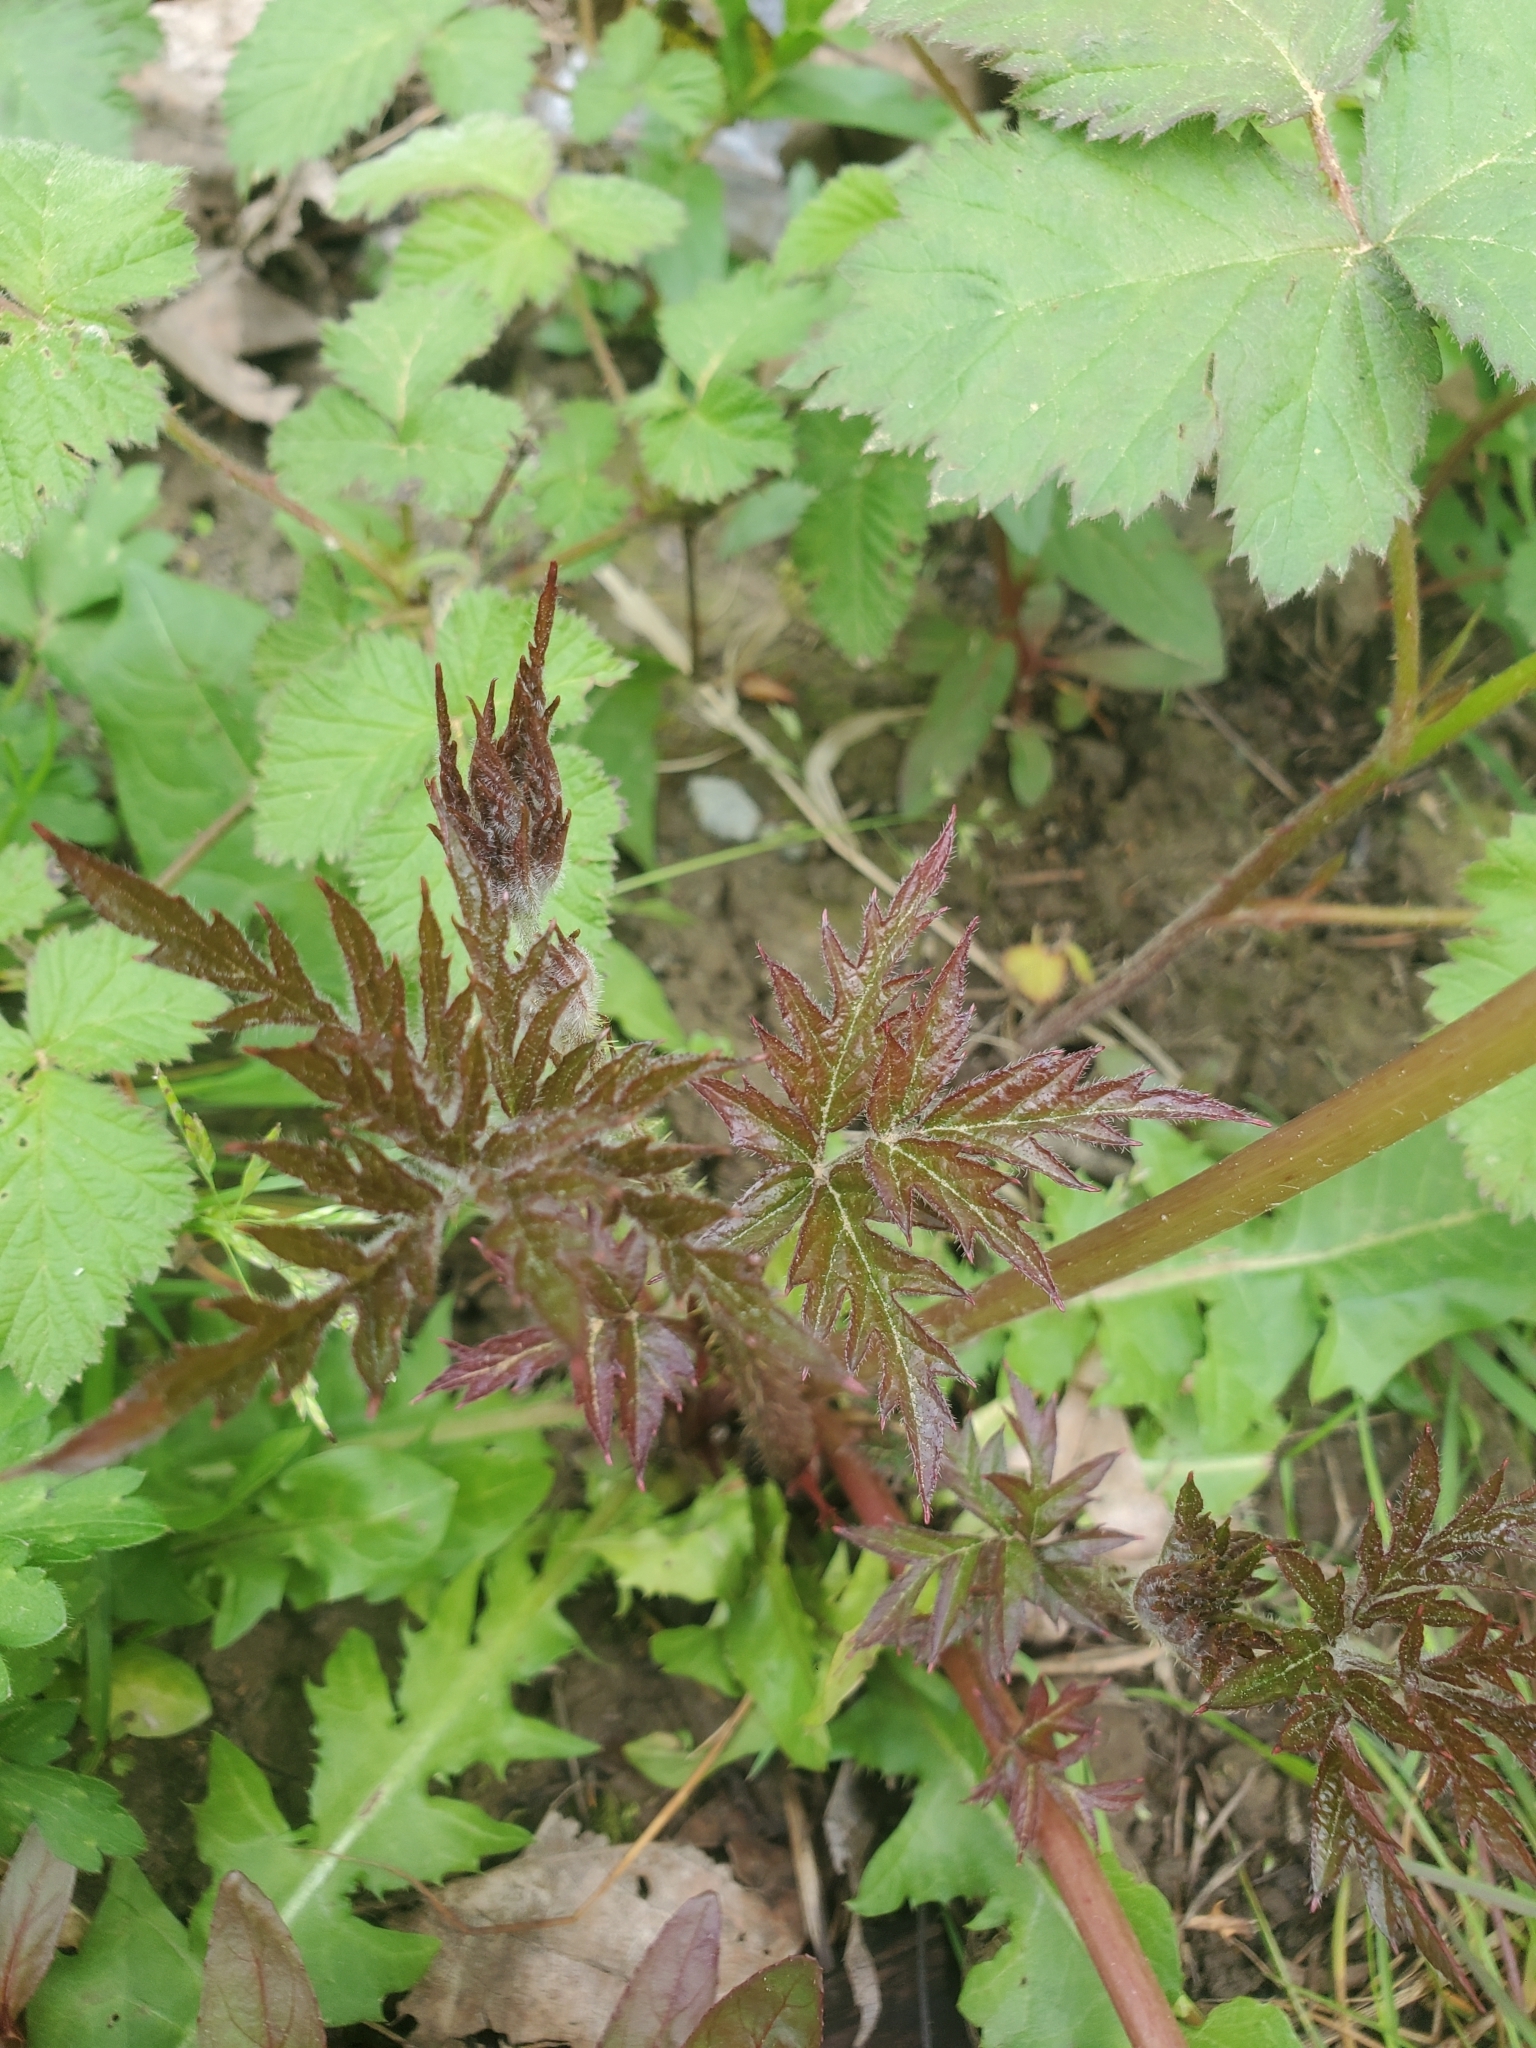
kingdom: Plantae
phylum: Tracheophyta
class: Magnoliopsida
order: Rosales
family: Rosaceae
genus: Rubus
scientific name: Rubus laciniatus
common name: Evergreen blackberry
